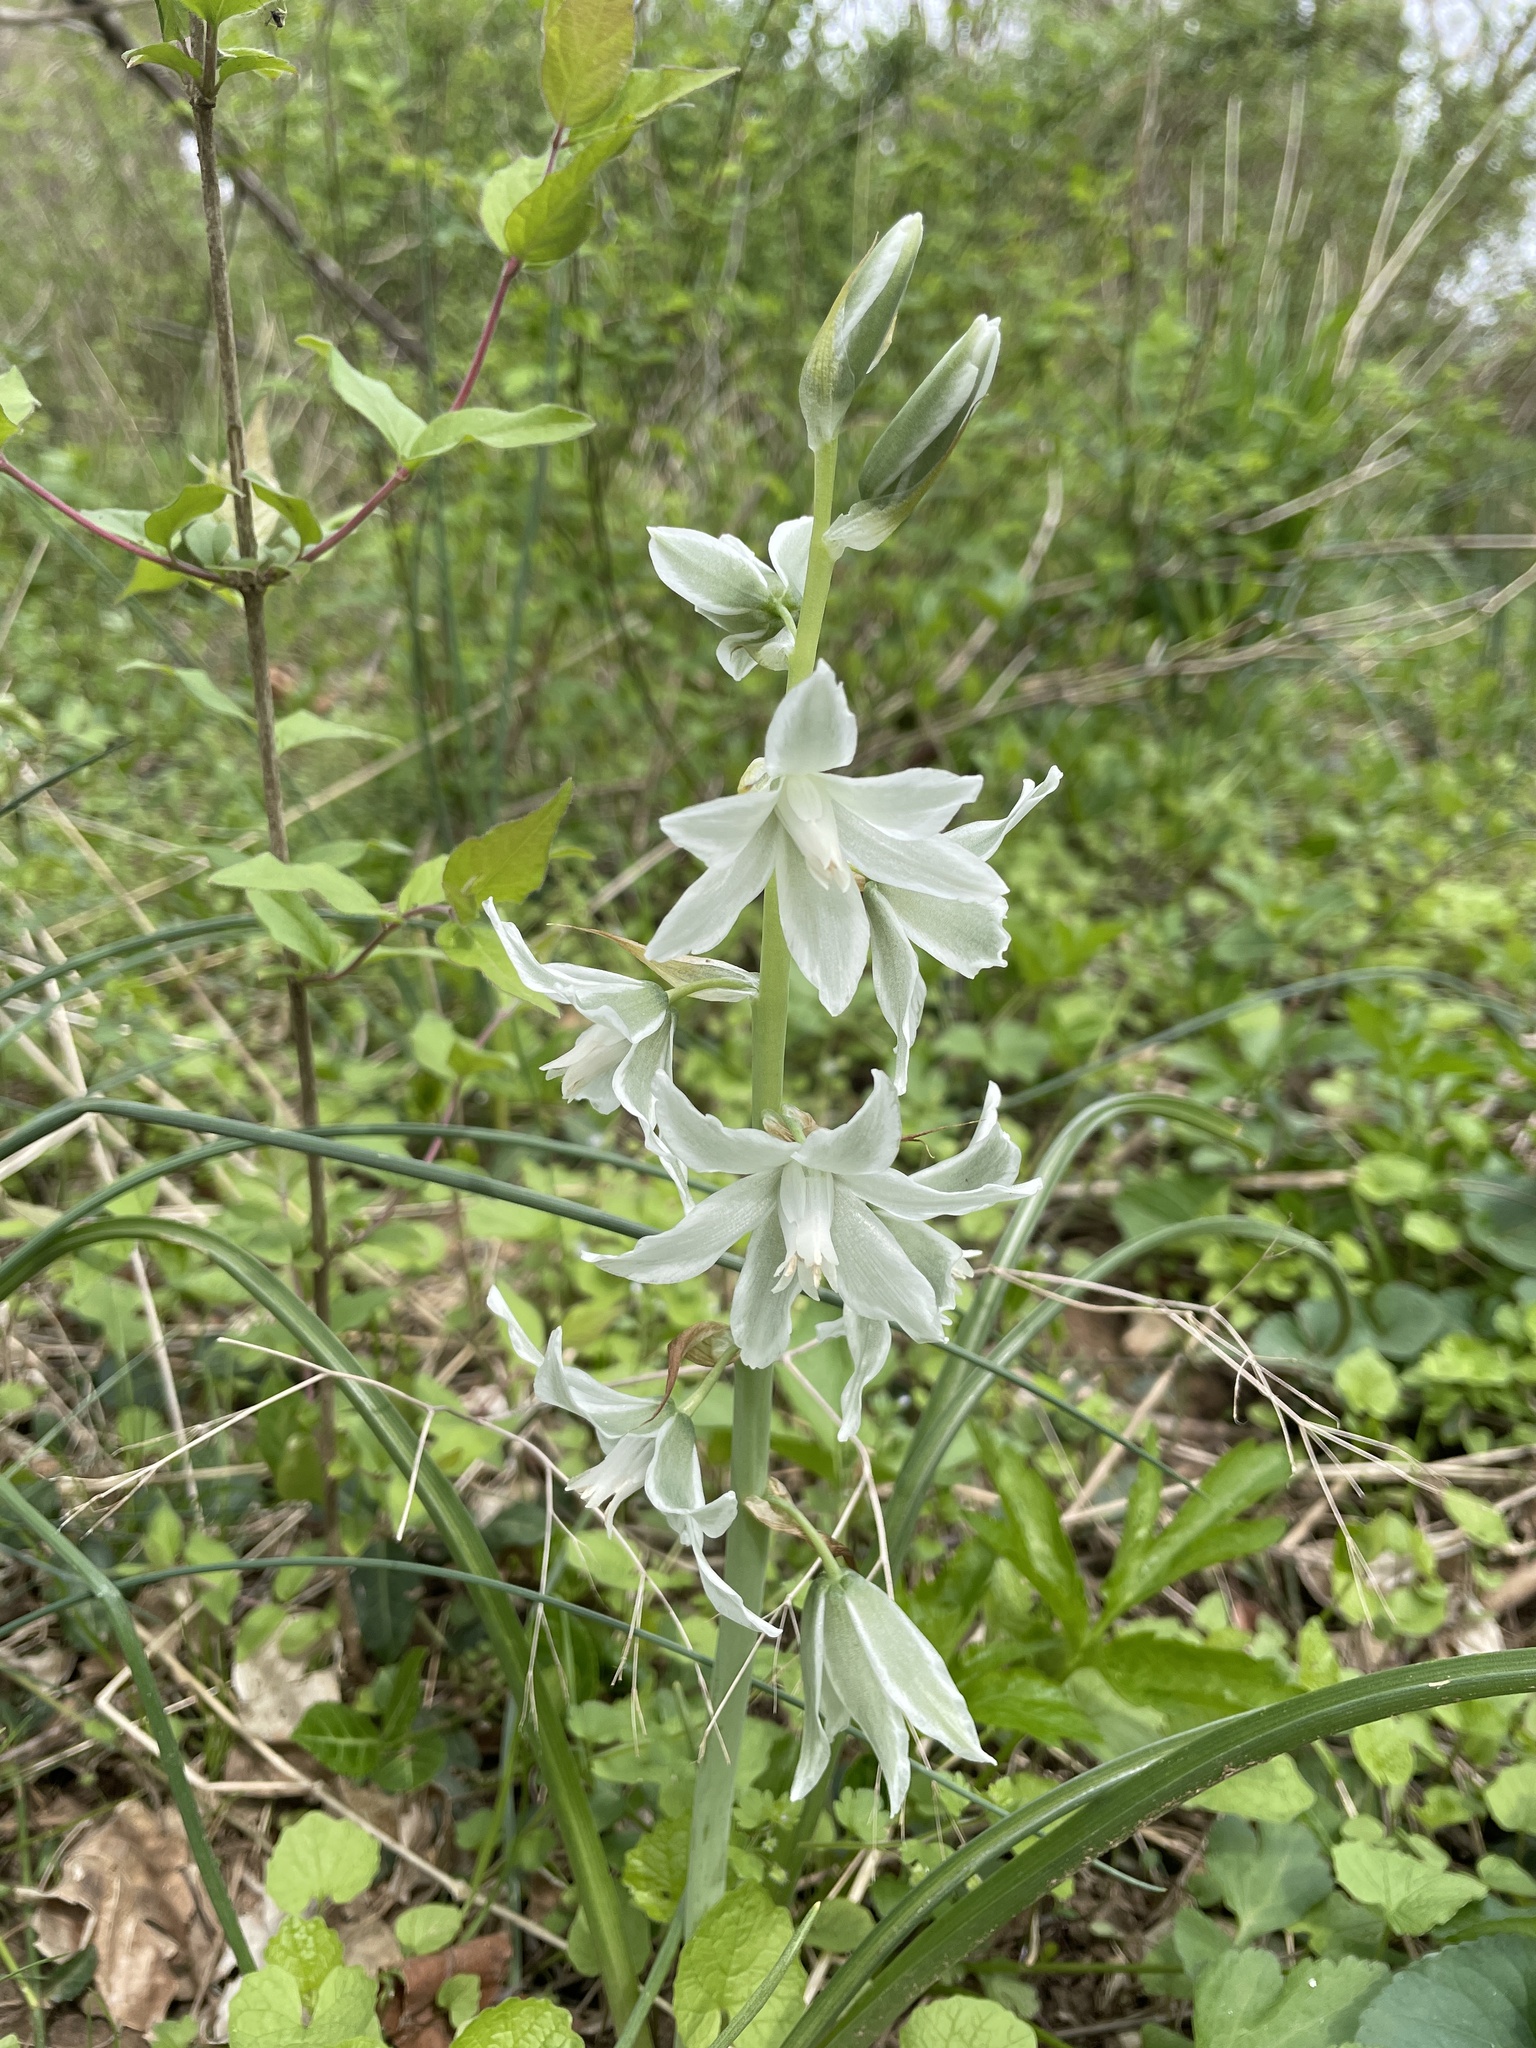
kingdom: Plantae
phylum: Tracheophyta
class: Liliopsida
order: Asparagales
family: Asparagaceae
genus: Ornithogalum
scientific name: Ornithogalum nutans
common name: Drooping star-of-bethlehem
